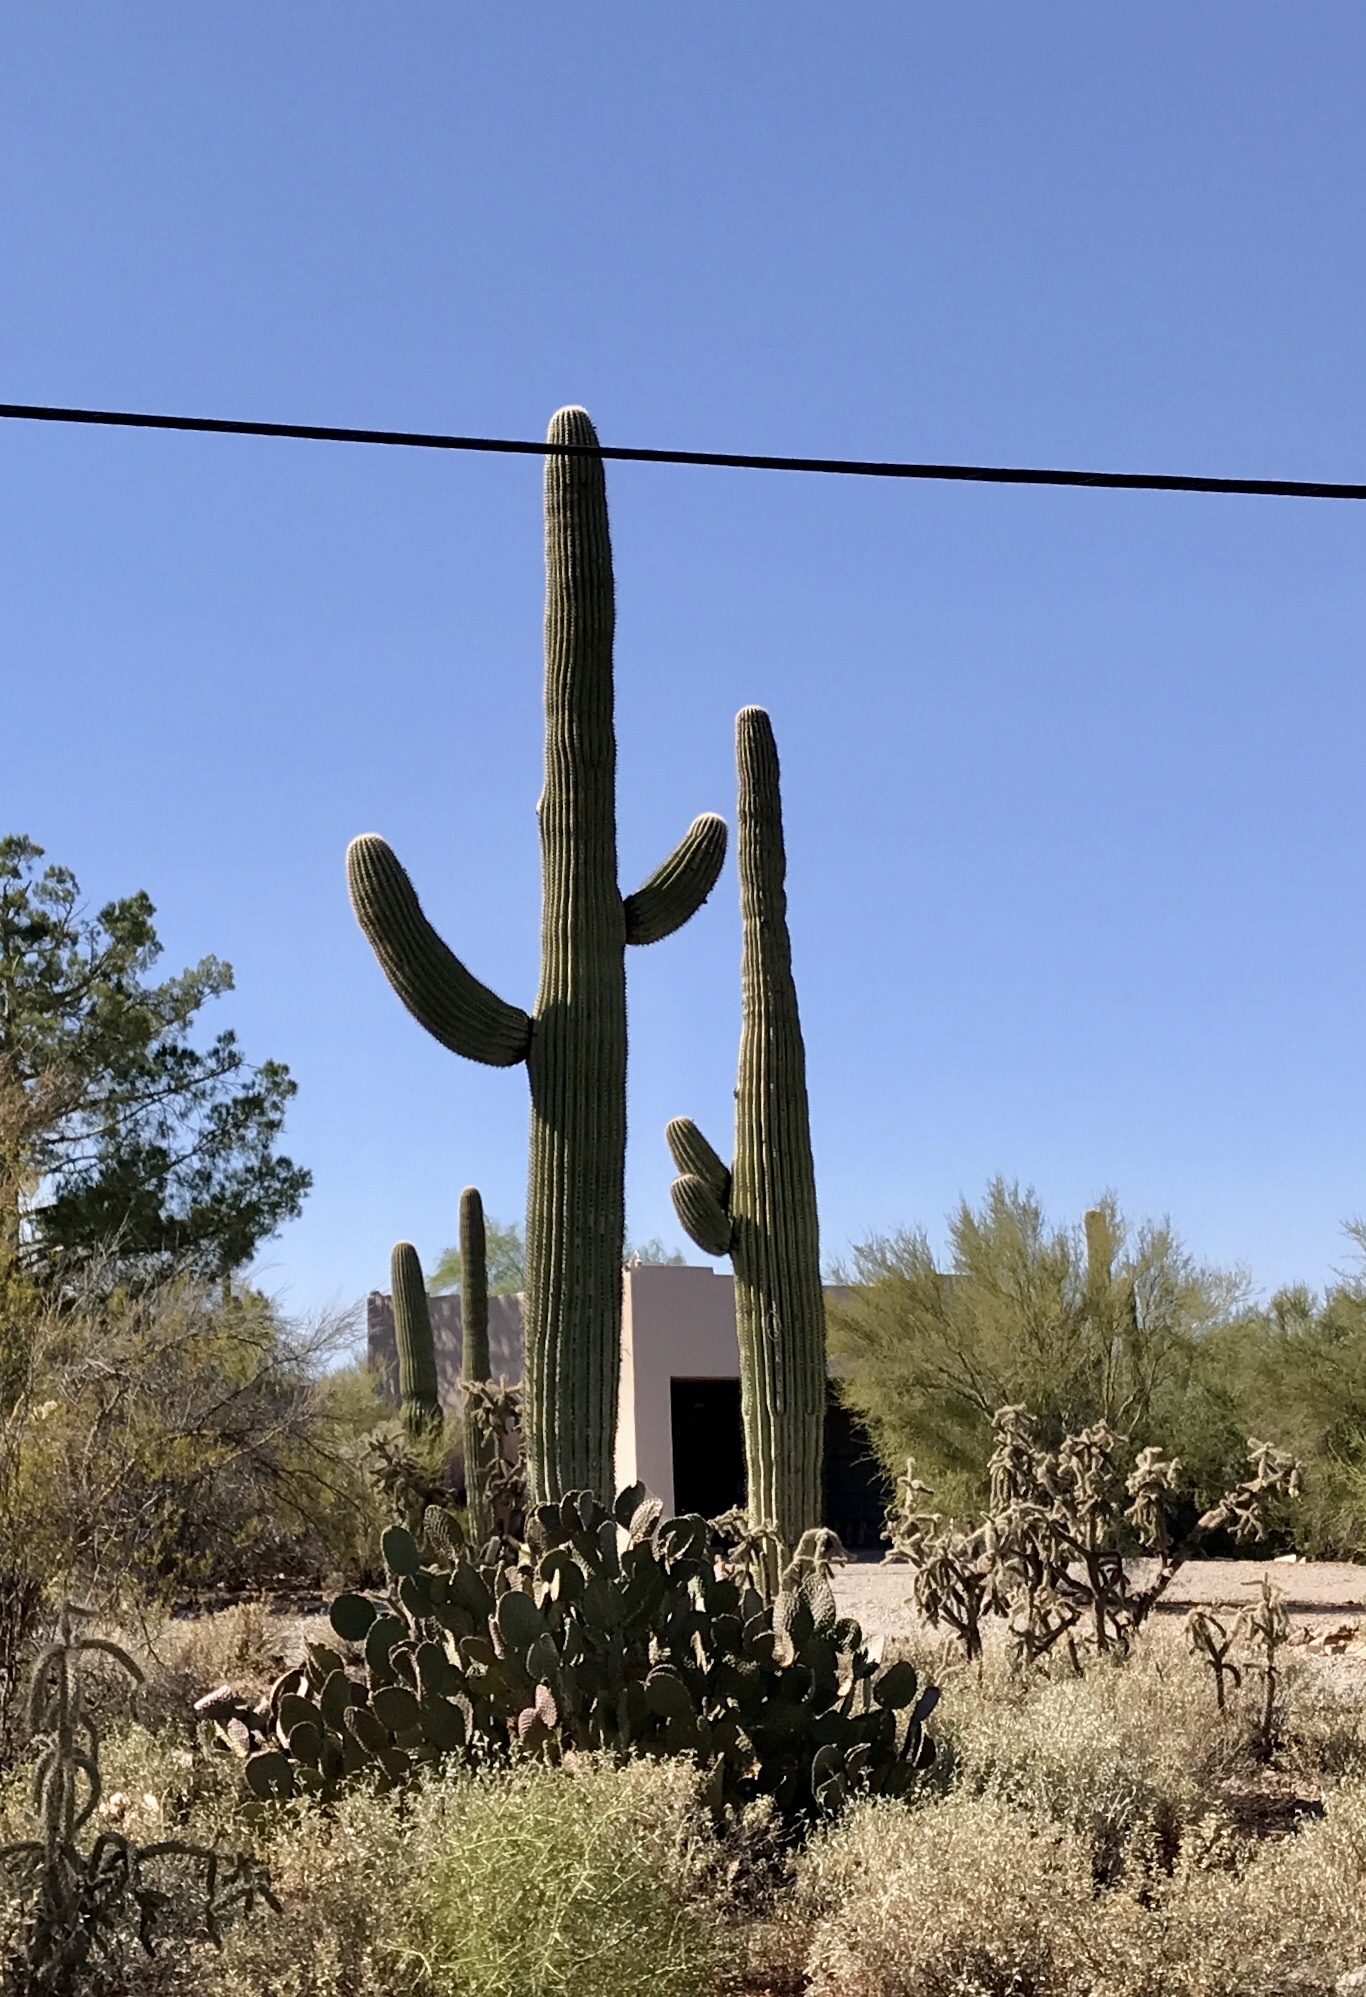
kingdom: Plantae
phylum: Tracheophyta
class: Magnoliopsida
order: Caryophyllales
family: Cactaceae
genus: Carnegiea
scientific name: Carnegiea gigantea
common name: Saguaro
